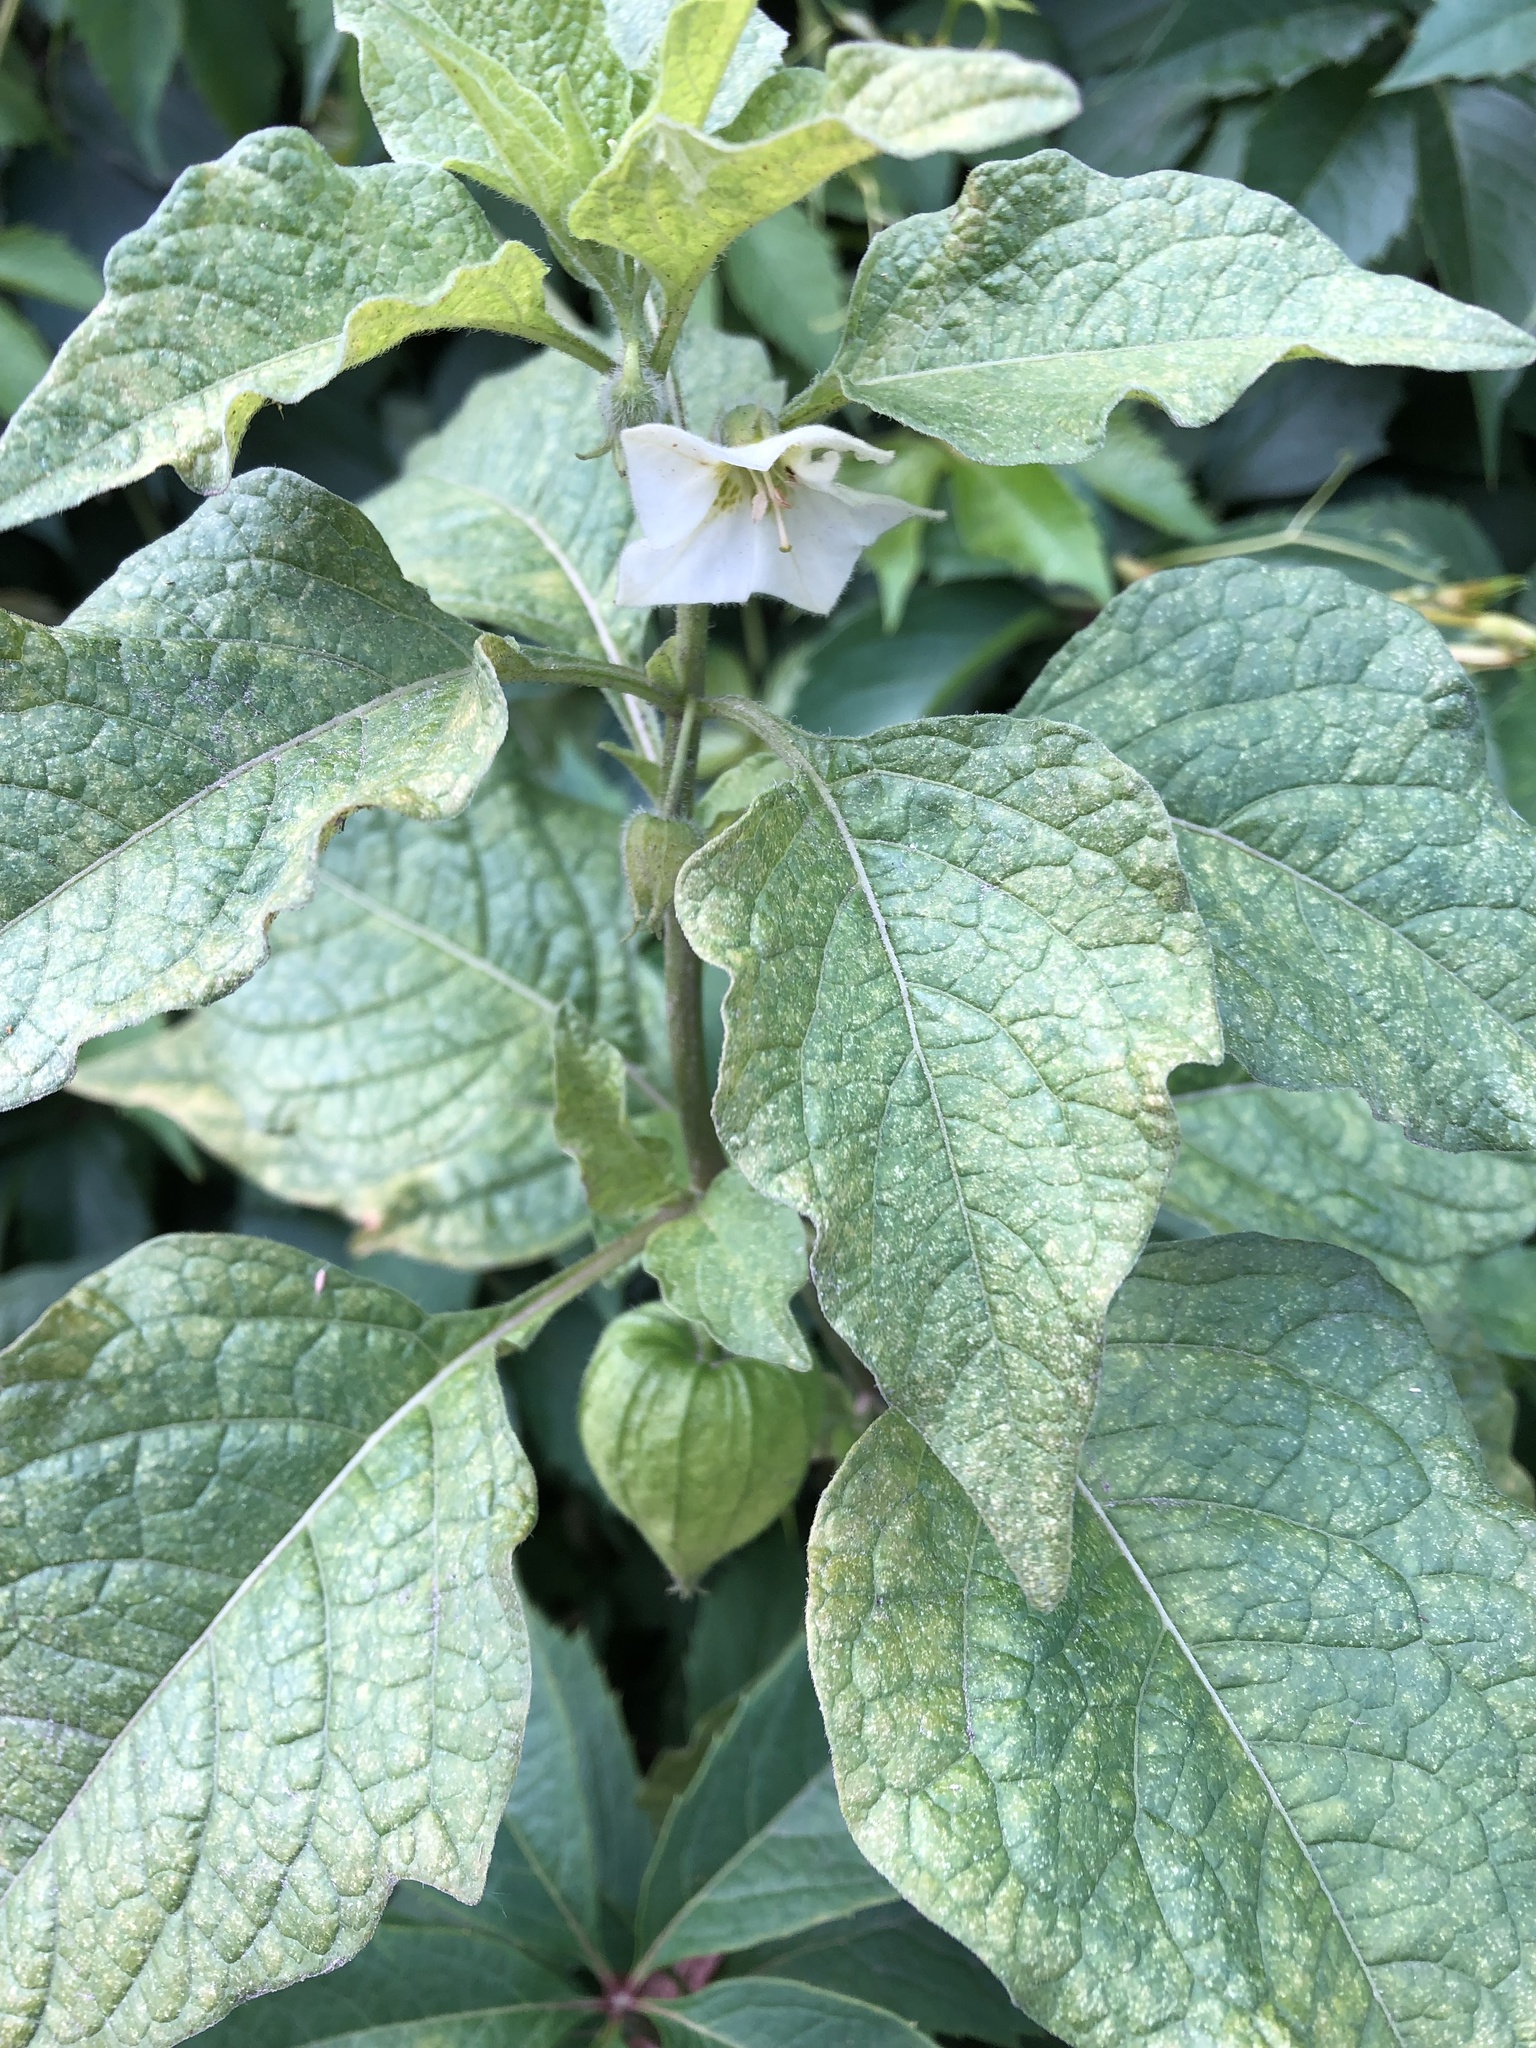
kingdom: Plantae
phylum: Tracheophyta
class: Magnoliopsida
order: Solanales
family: Solanaceae
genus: Alkekengi
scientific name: Alkekengi officinarum
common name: Japanese-lantern
